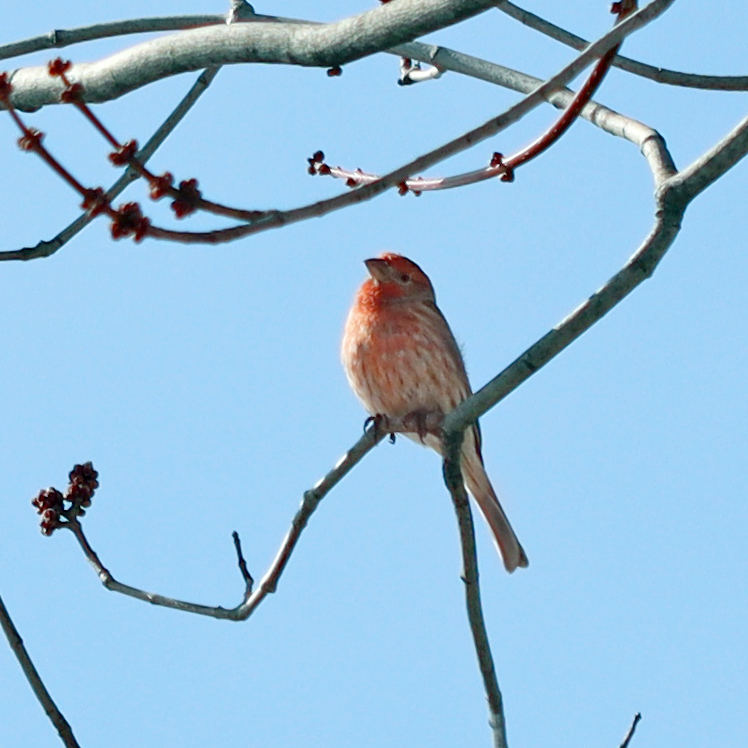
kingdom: Animalia
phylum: Chordata
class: Aves
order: Passeriformes
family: Fringillidae
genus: Haemorhous
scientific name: Haemorhous mexicanus
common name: House finch
